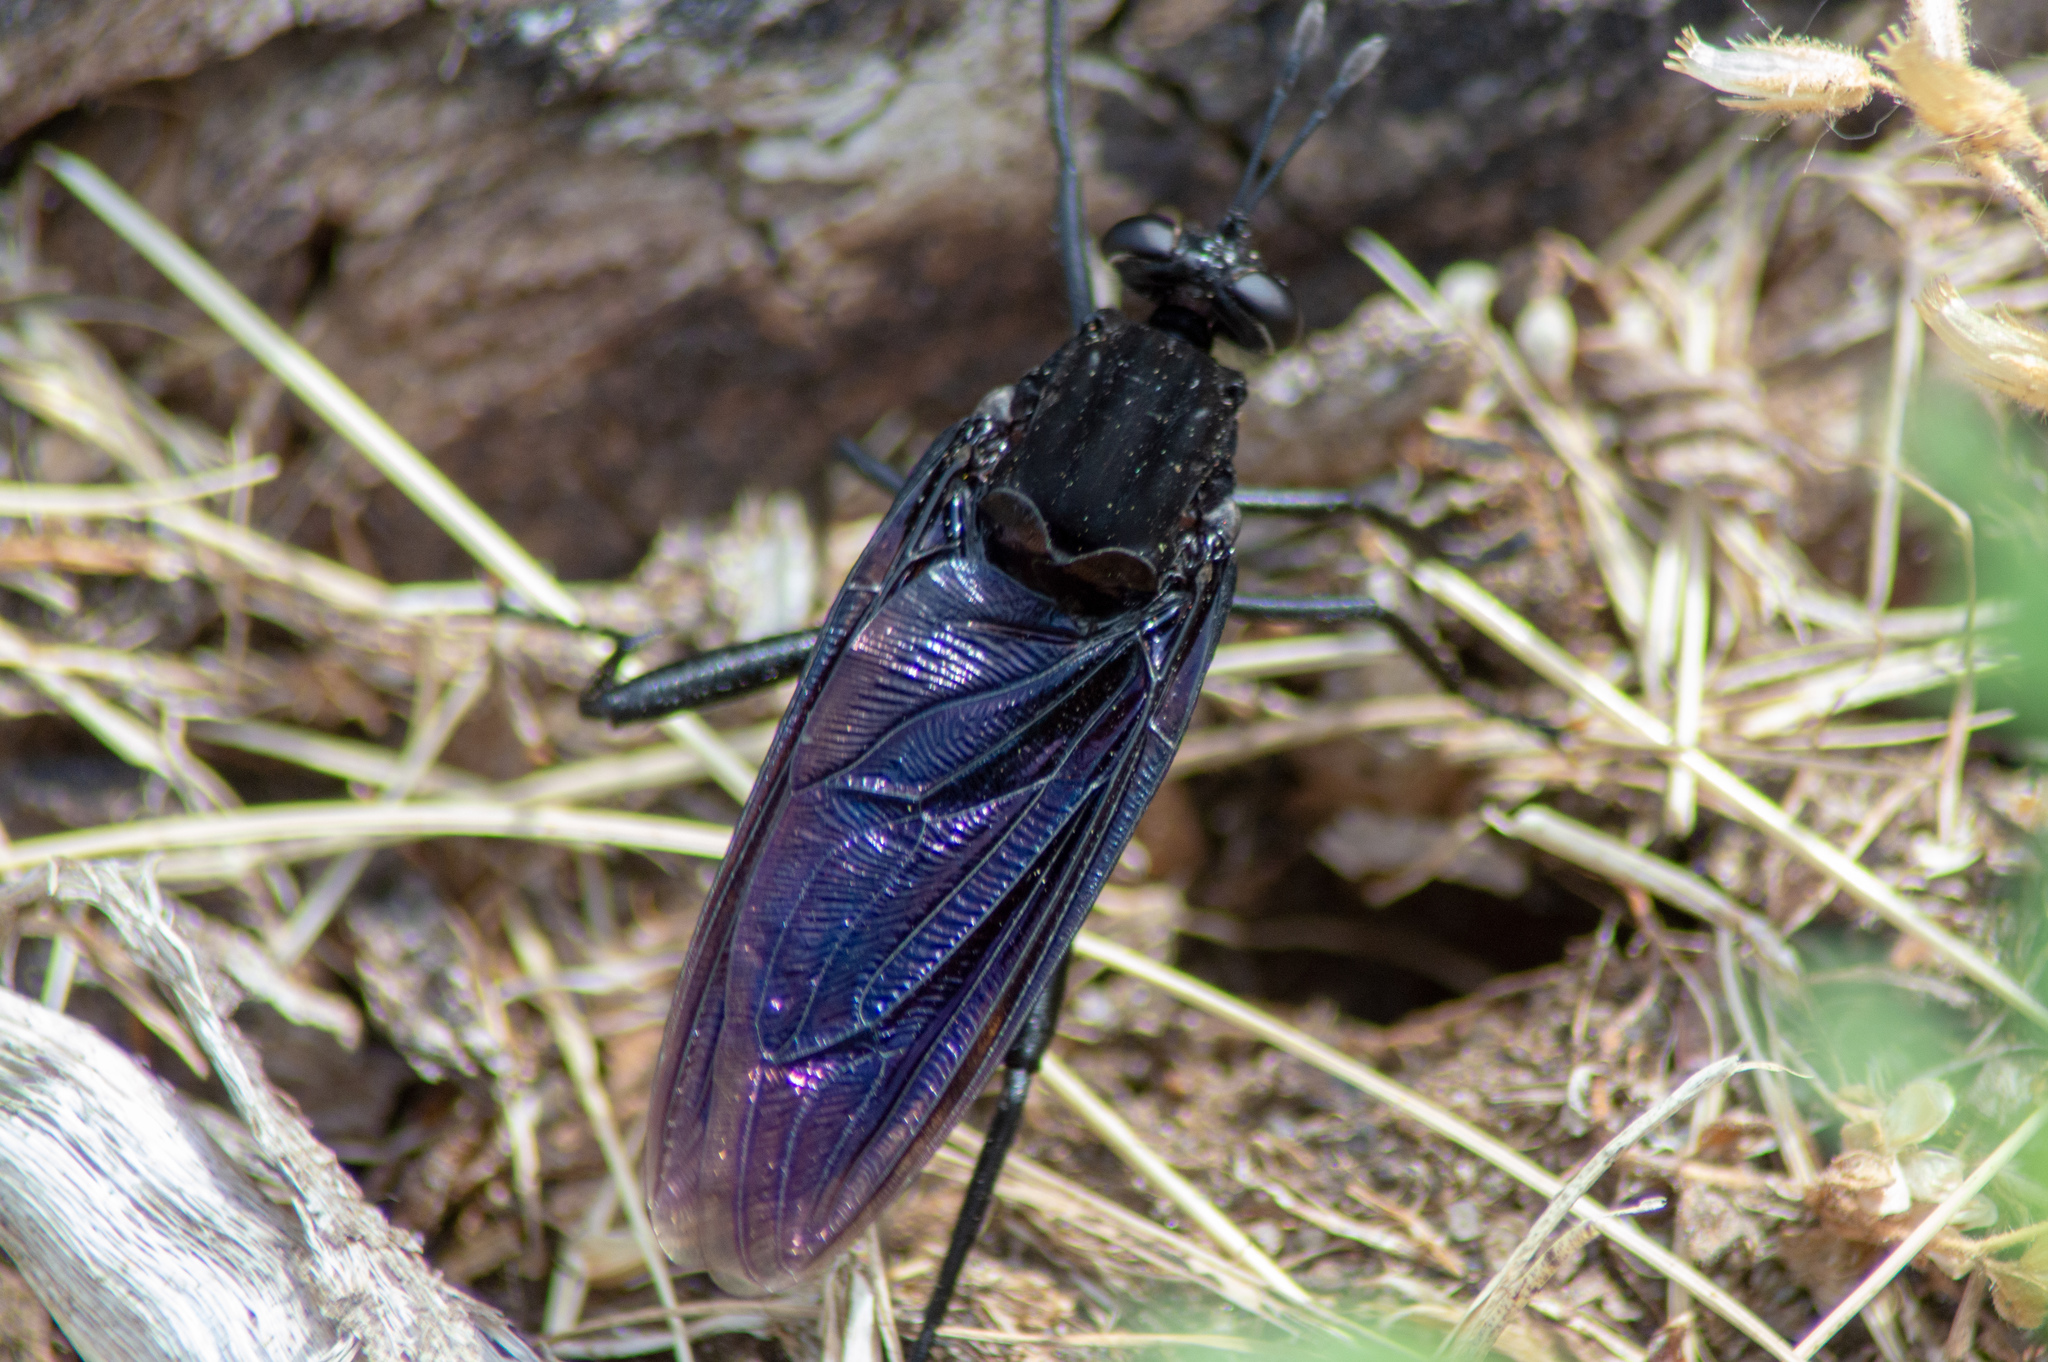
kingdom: Animalia
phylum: Arthropoda
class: Insecta
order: Diptera
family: Mydidae
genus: Mydas
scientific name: Mydas clavatus
